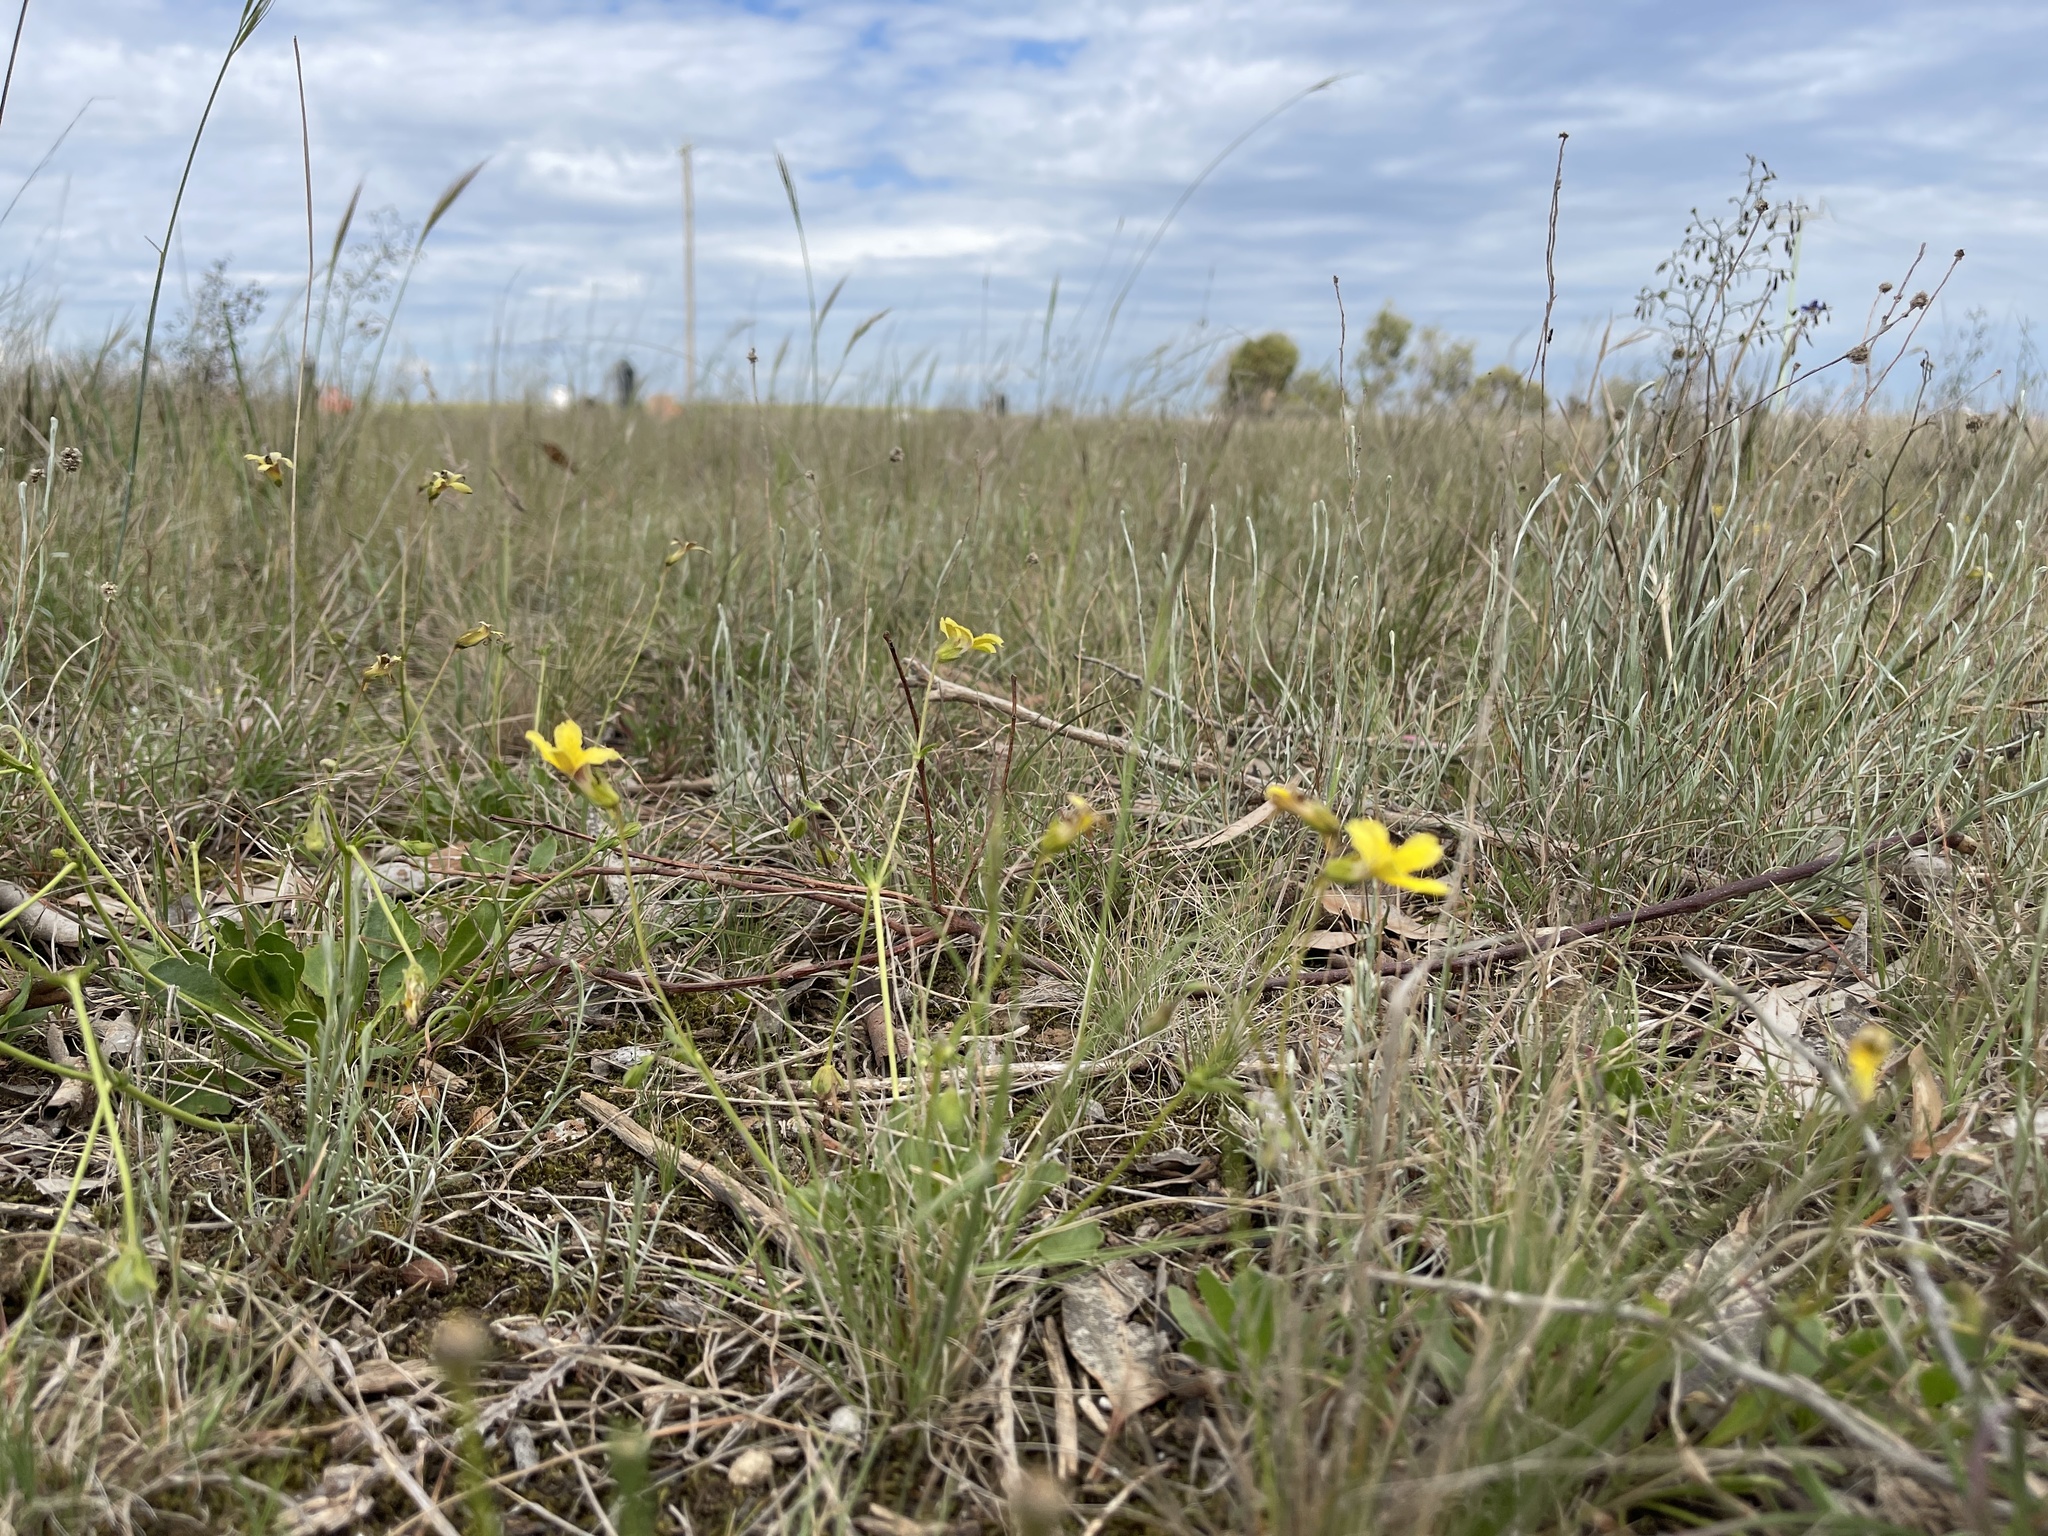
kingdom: Plantae
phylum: Tracheophyta
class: Magnoliopsida
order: Asterales
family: Goodeniaceae
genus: Goodenia
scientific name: Goodenia paradoxa
